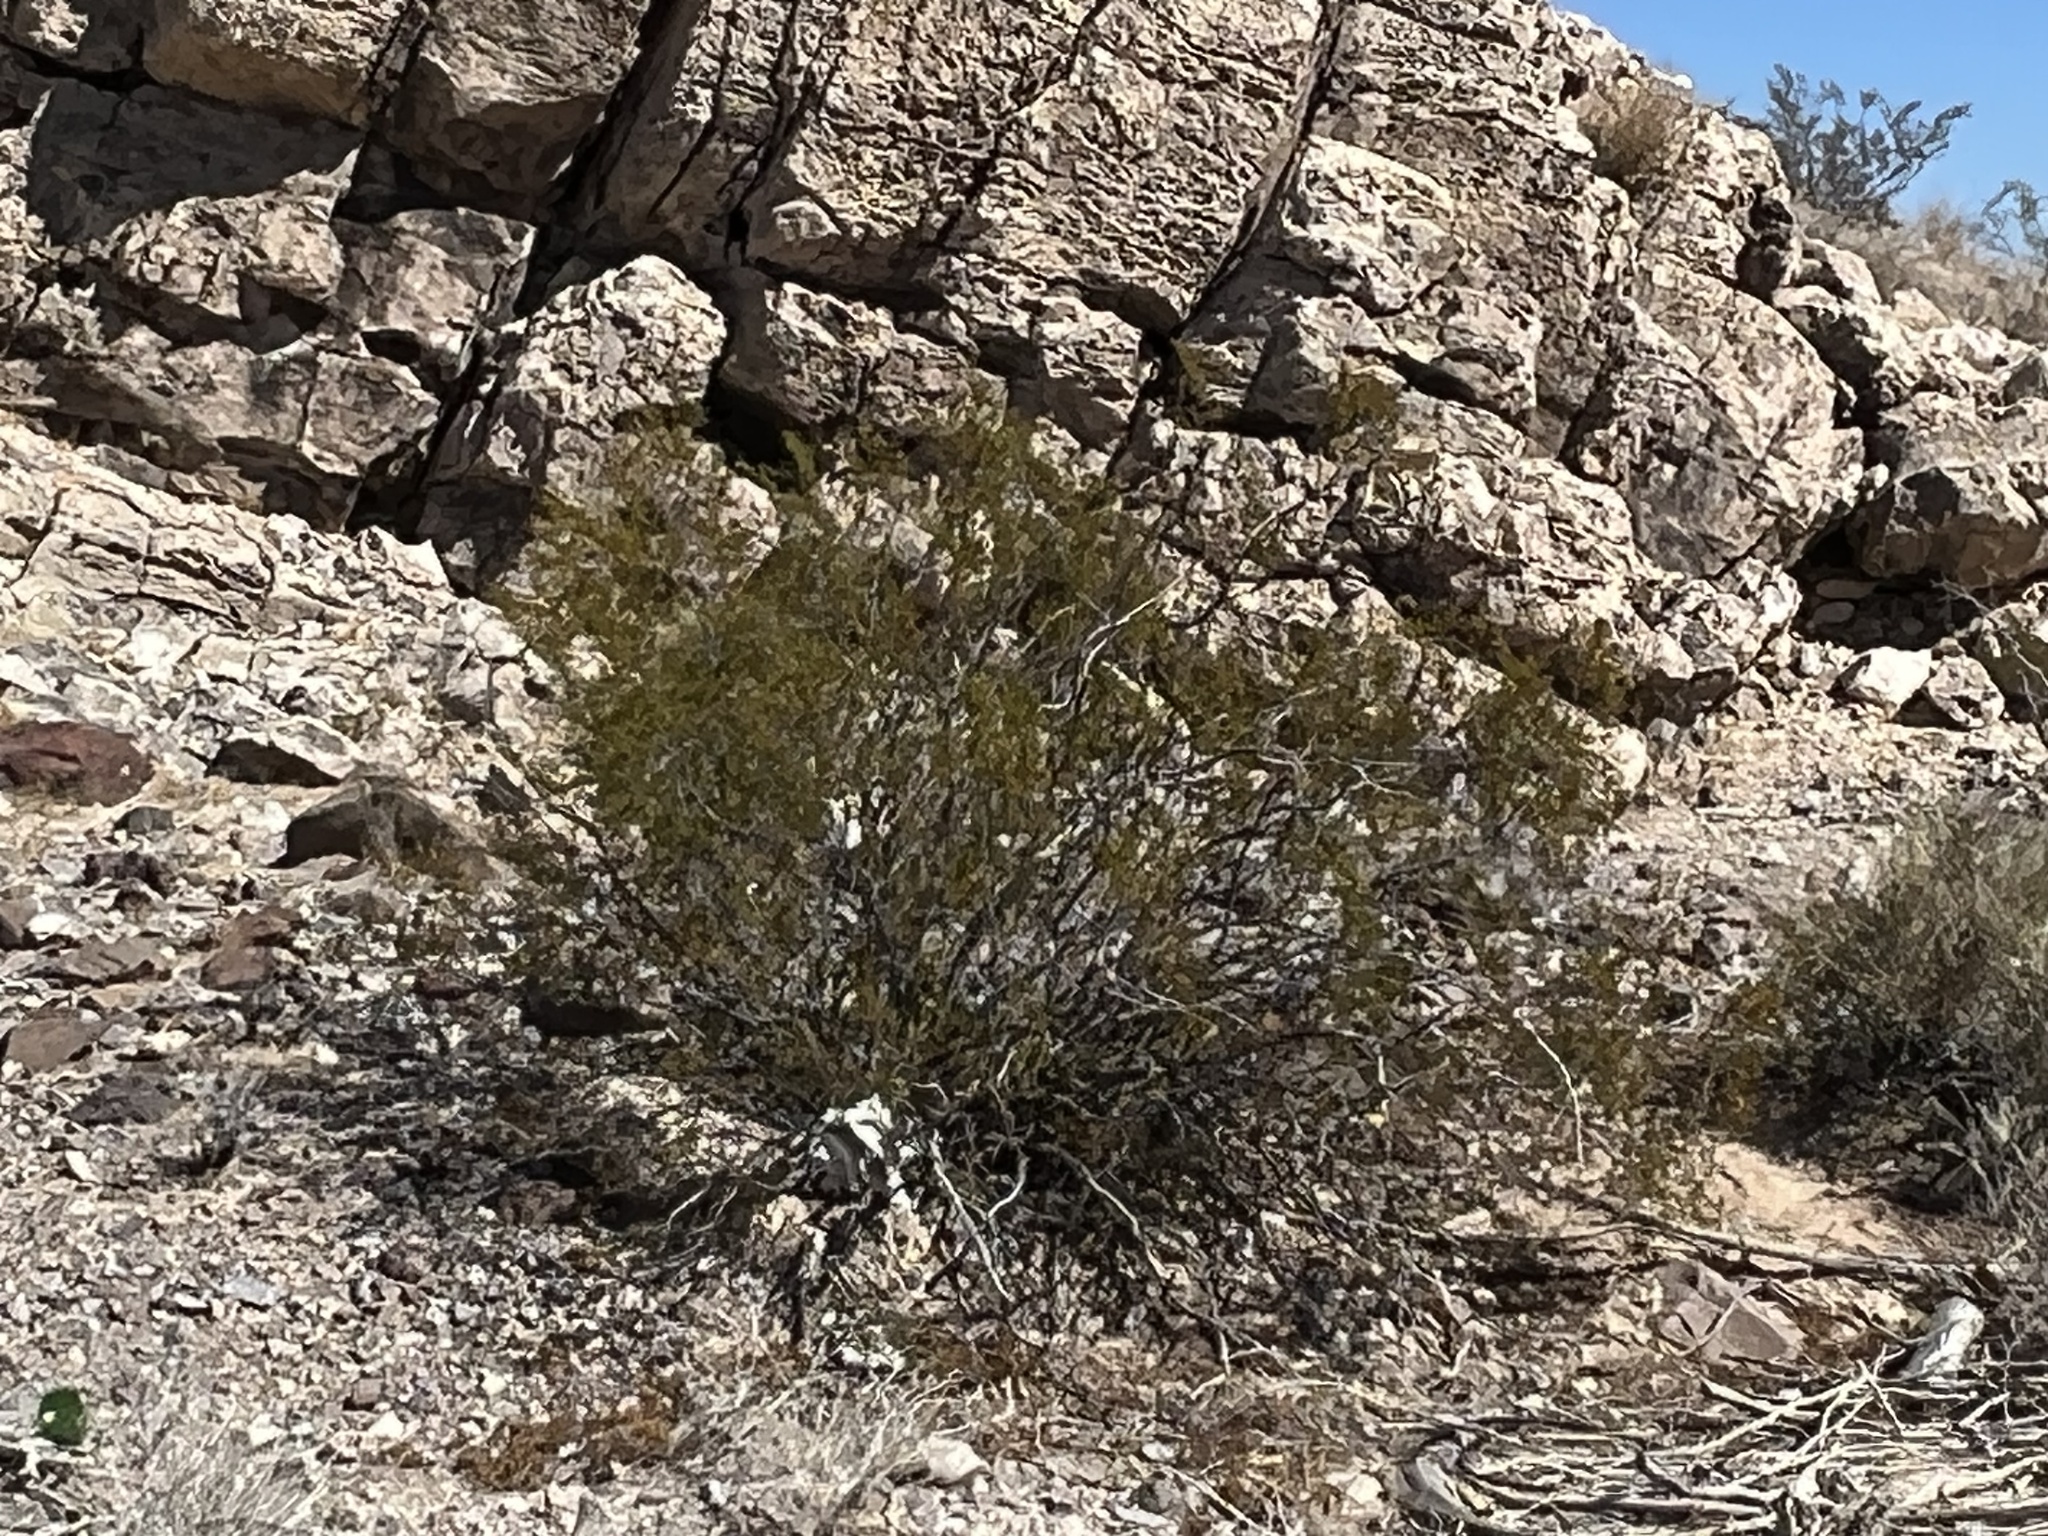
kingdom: Plantae
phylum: Tracheophyta
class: Magnoliopsida
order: Zygophyllales
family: Zygophyllaceae
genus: Larrea
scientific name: Larrea tridentata
